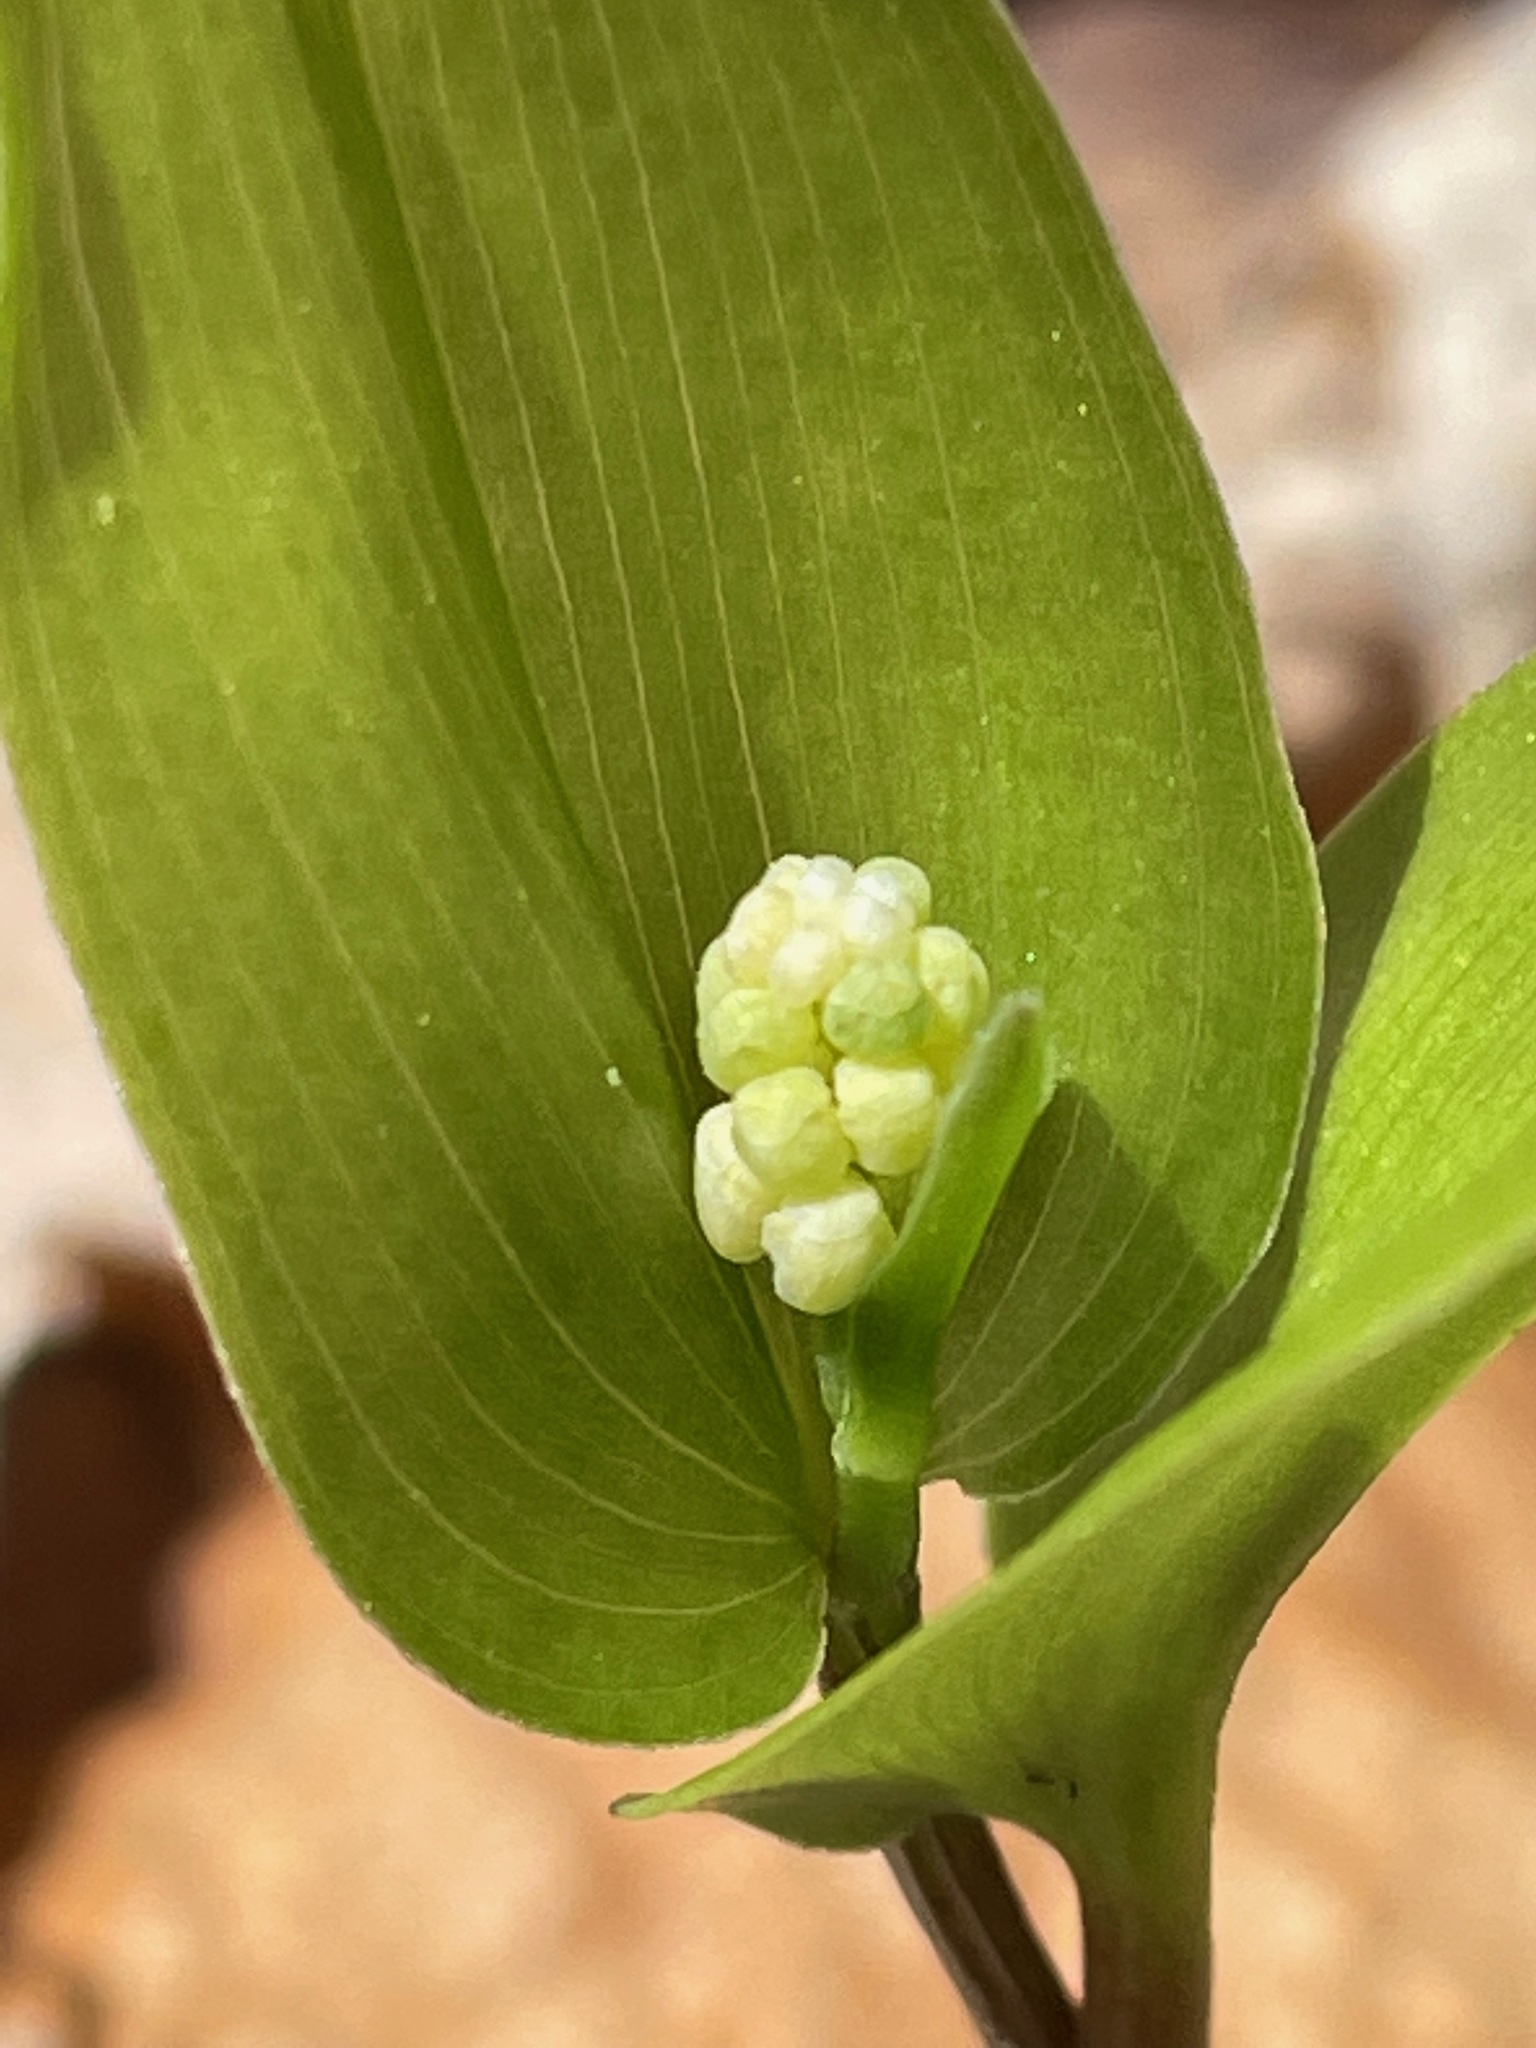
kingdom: Plantae
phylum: Tracheophyta
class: Liliopsida
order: Asparagales
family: Asparagaceae
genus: Maianthemum
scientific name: Maianthemum canadense
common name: False lily-of-the-valley
